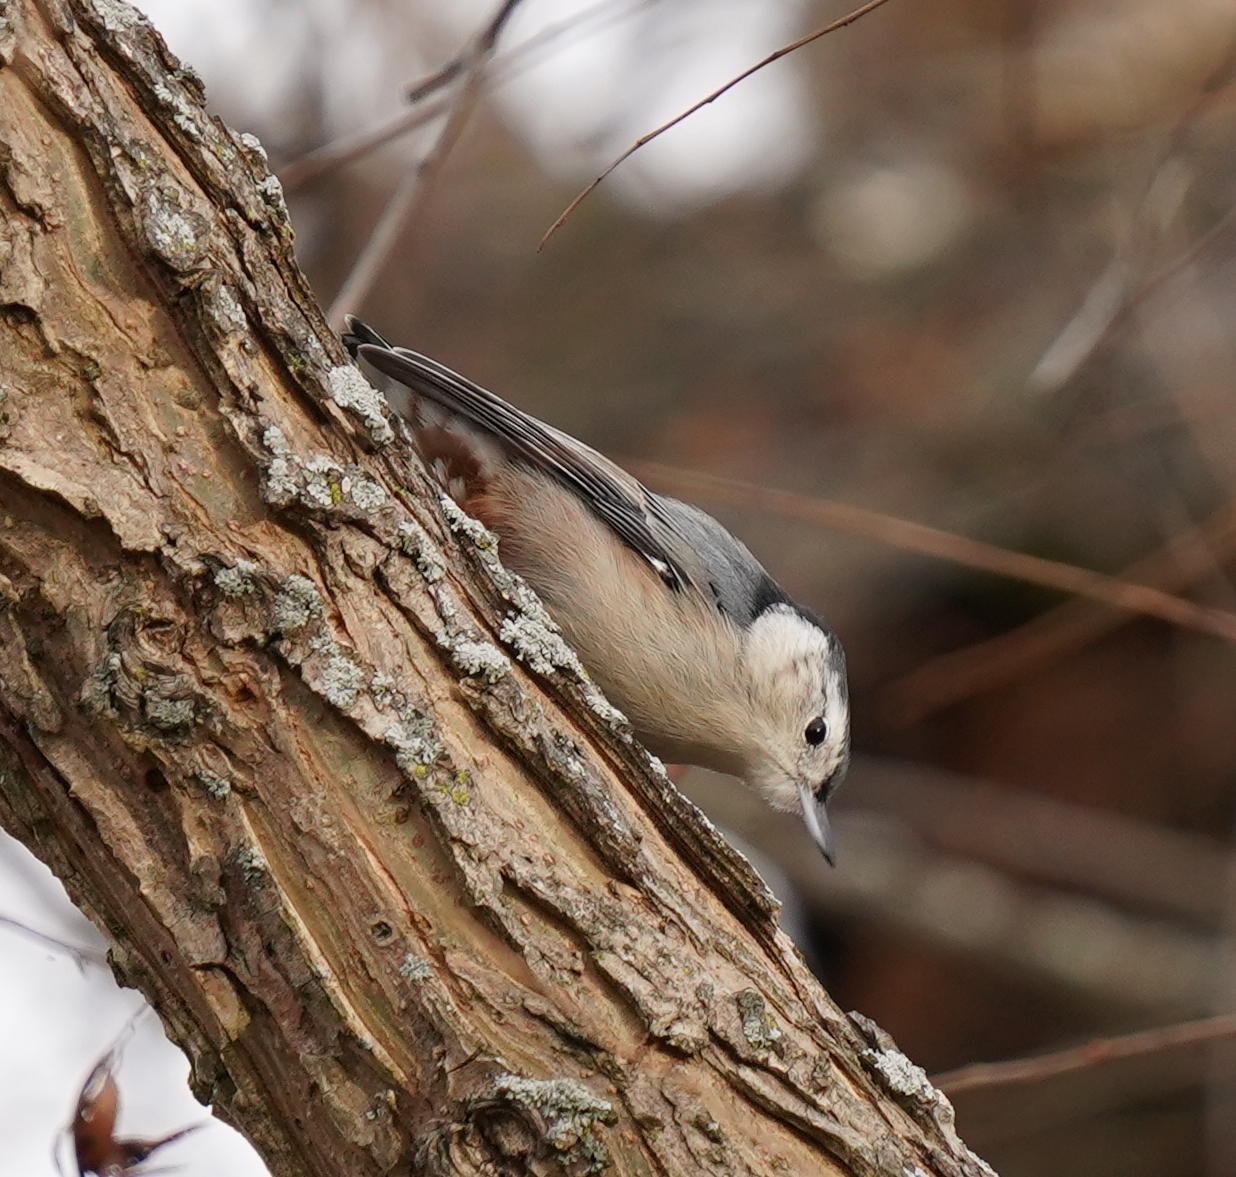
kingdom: Animalia
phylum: Chordata
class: Aves
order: Passeriformes
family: Sittidae
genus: Sitta
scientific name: Sitta carolinensis
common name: White-breasted nuthatch
